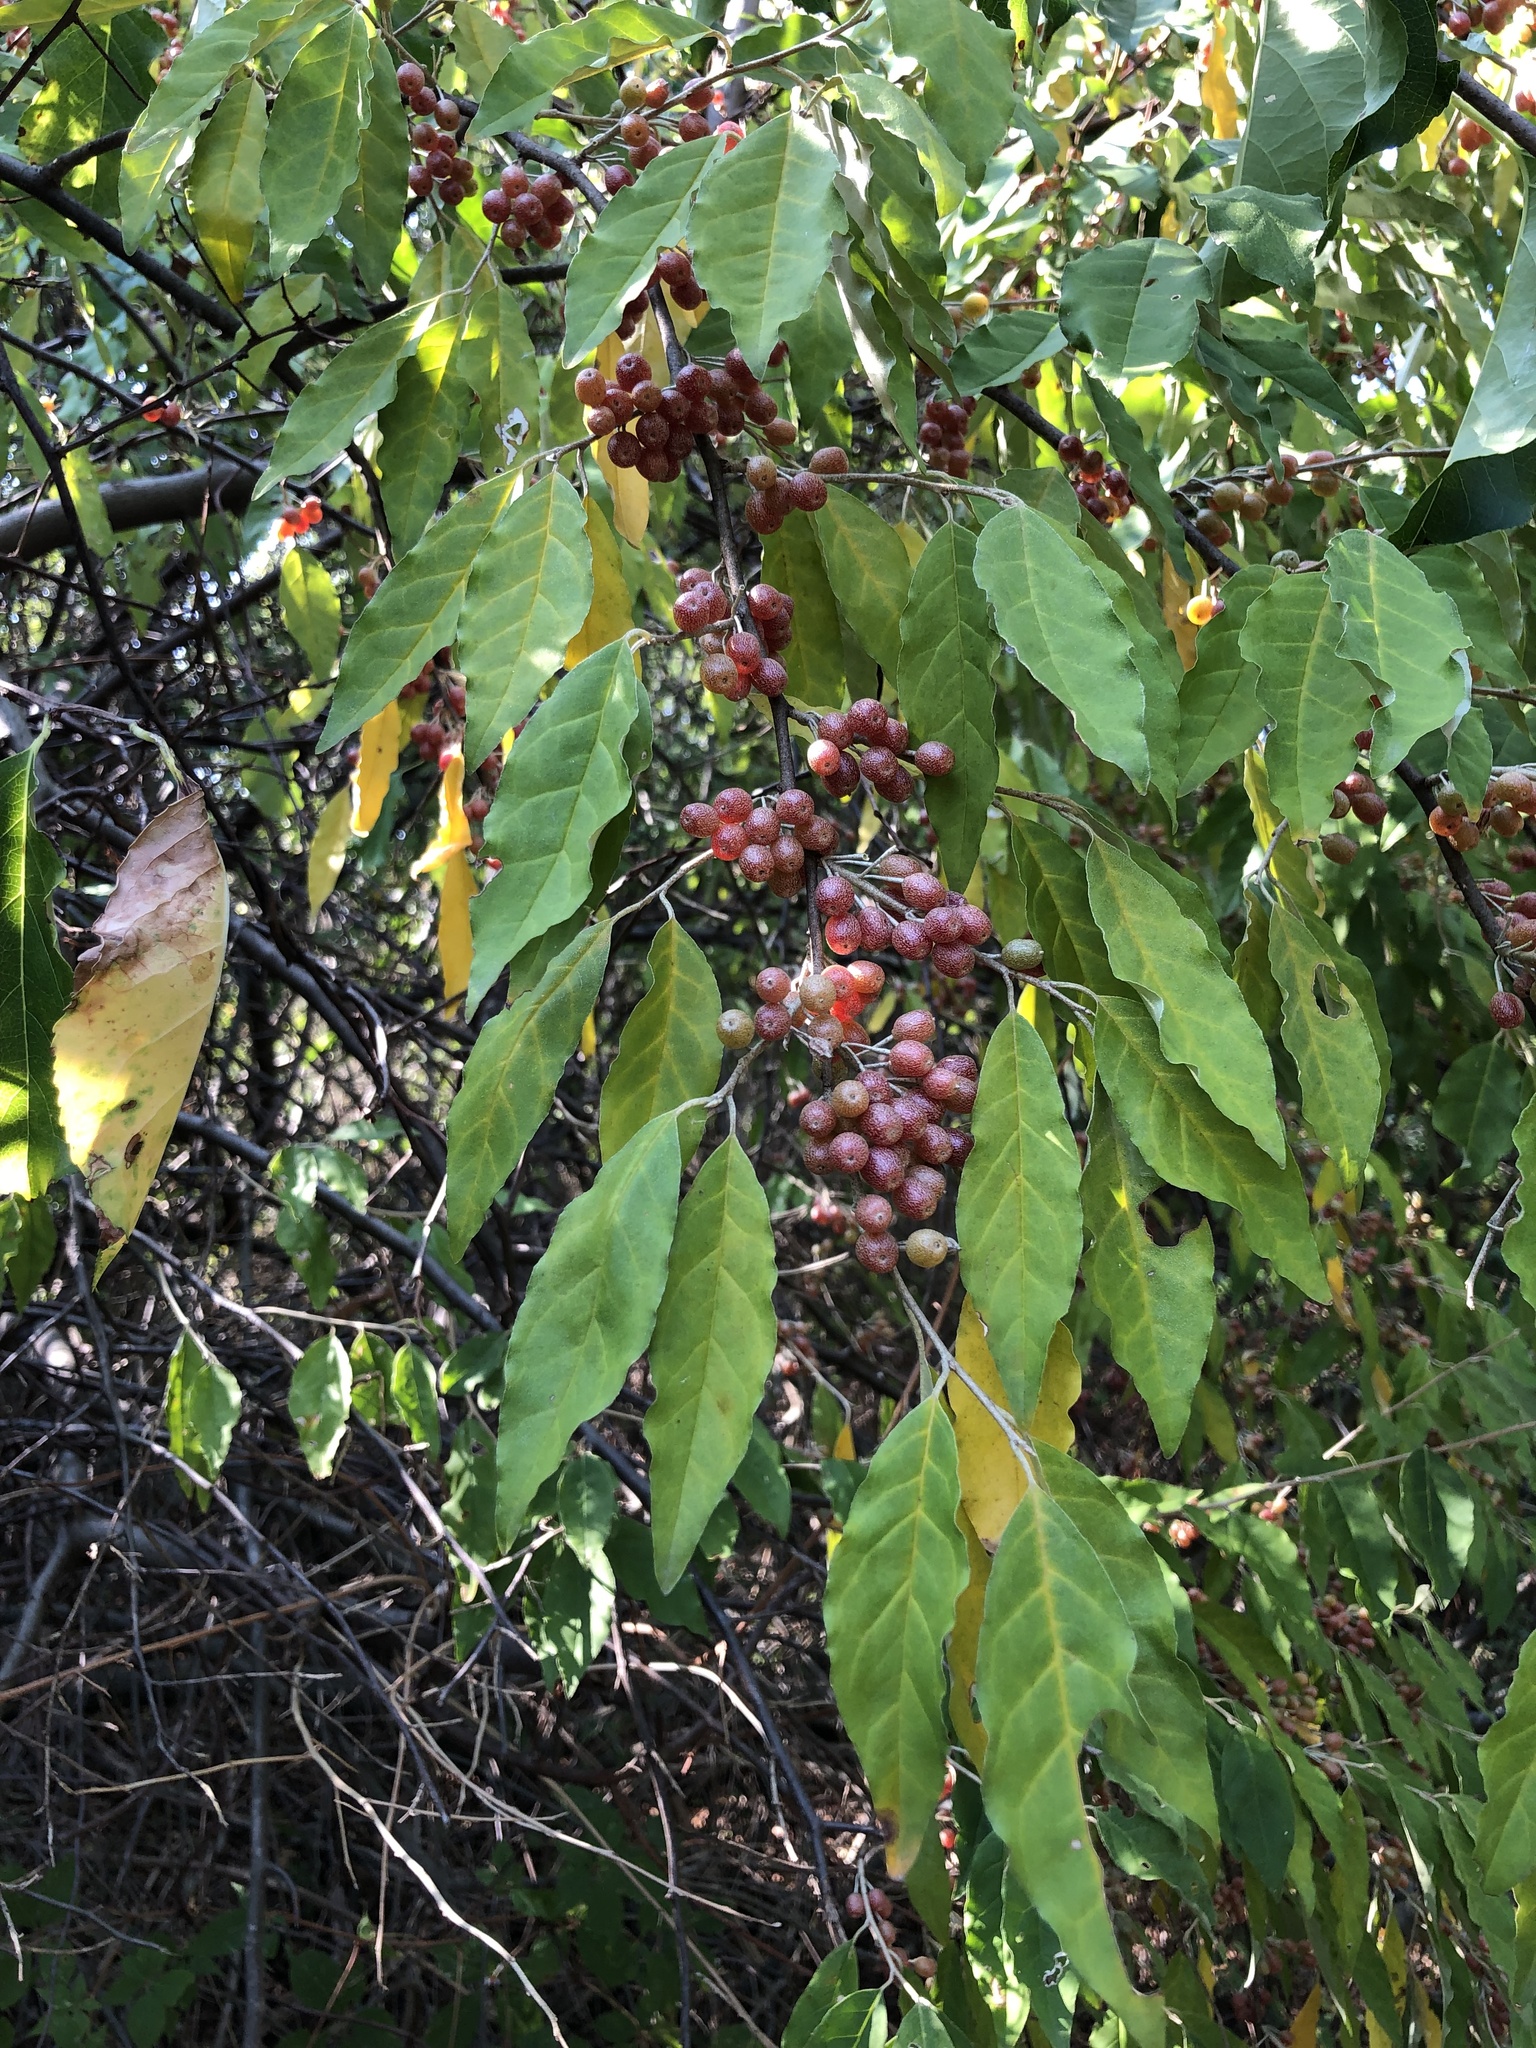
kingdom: Plantae
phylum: Tracheophyta
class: Magnoliopsida
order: Rosales
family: Elaeagnaceae
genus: Elaeagnus
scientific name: Elaeagnus umbellata
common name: Autumn olive
